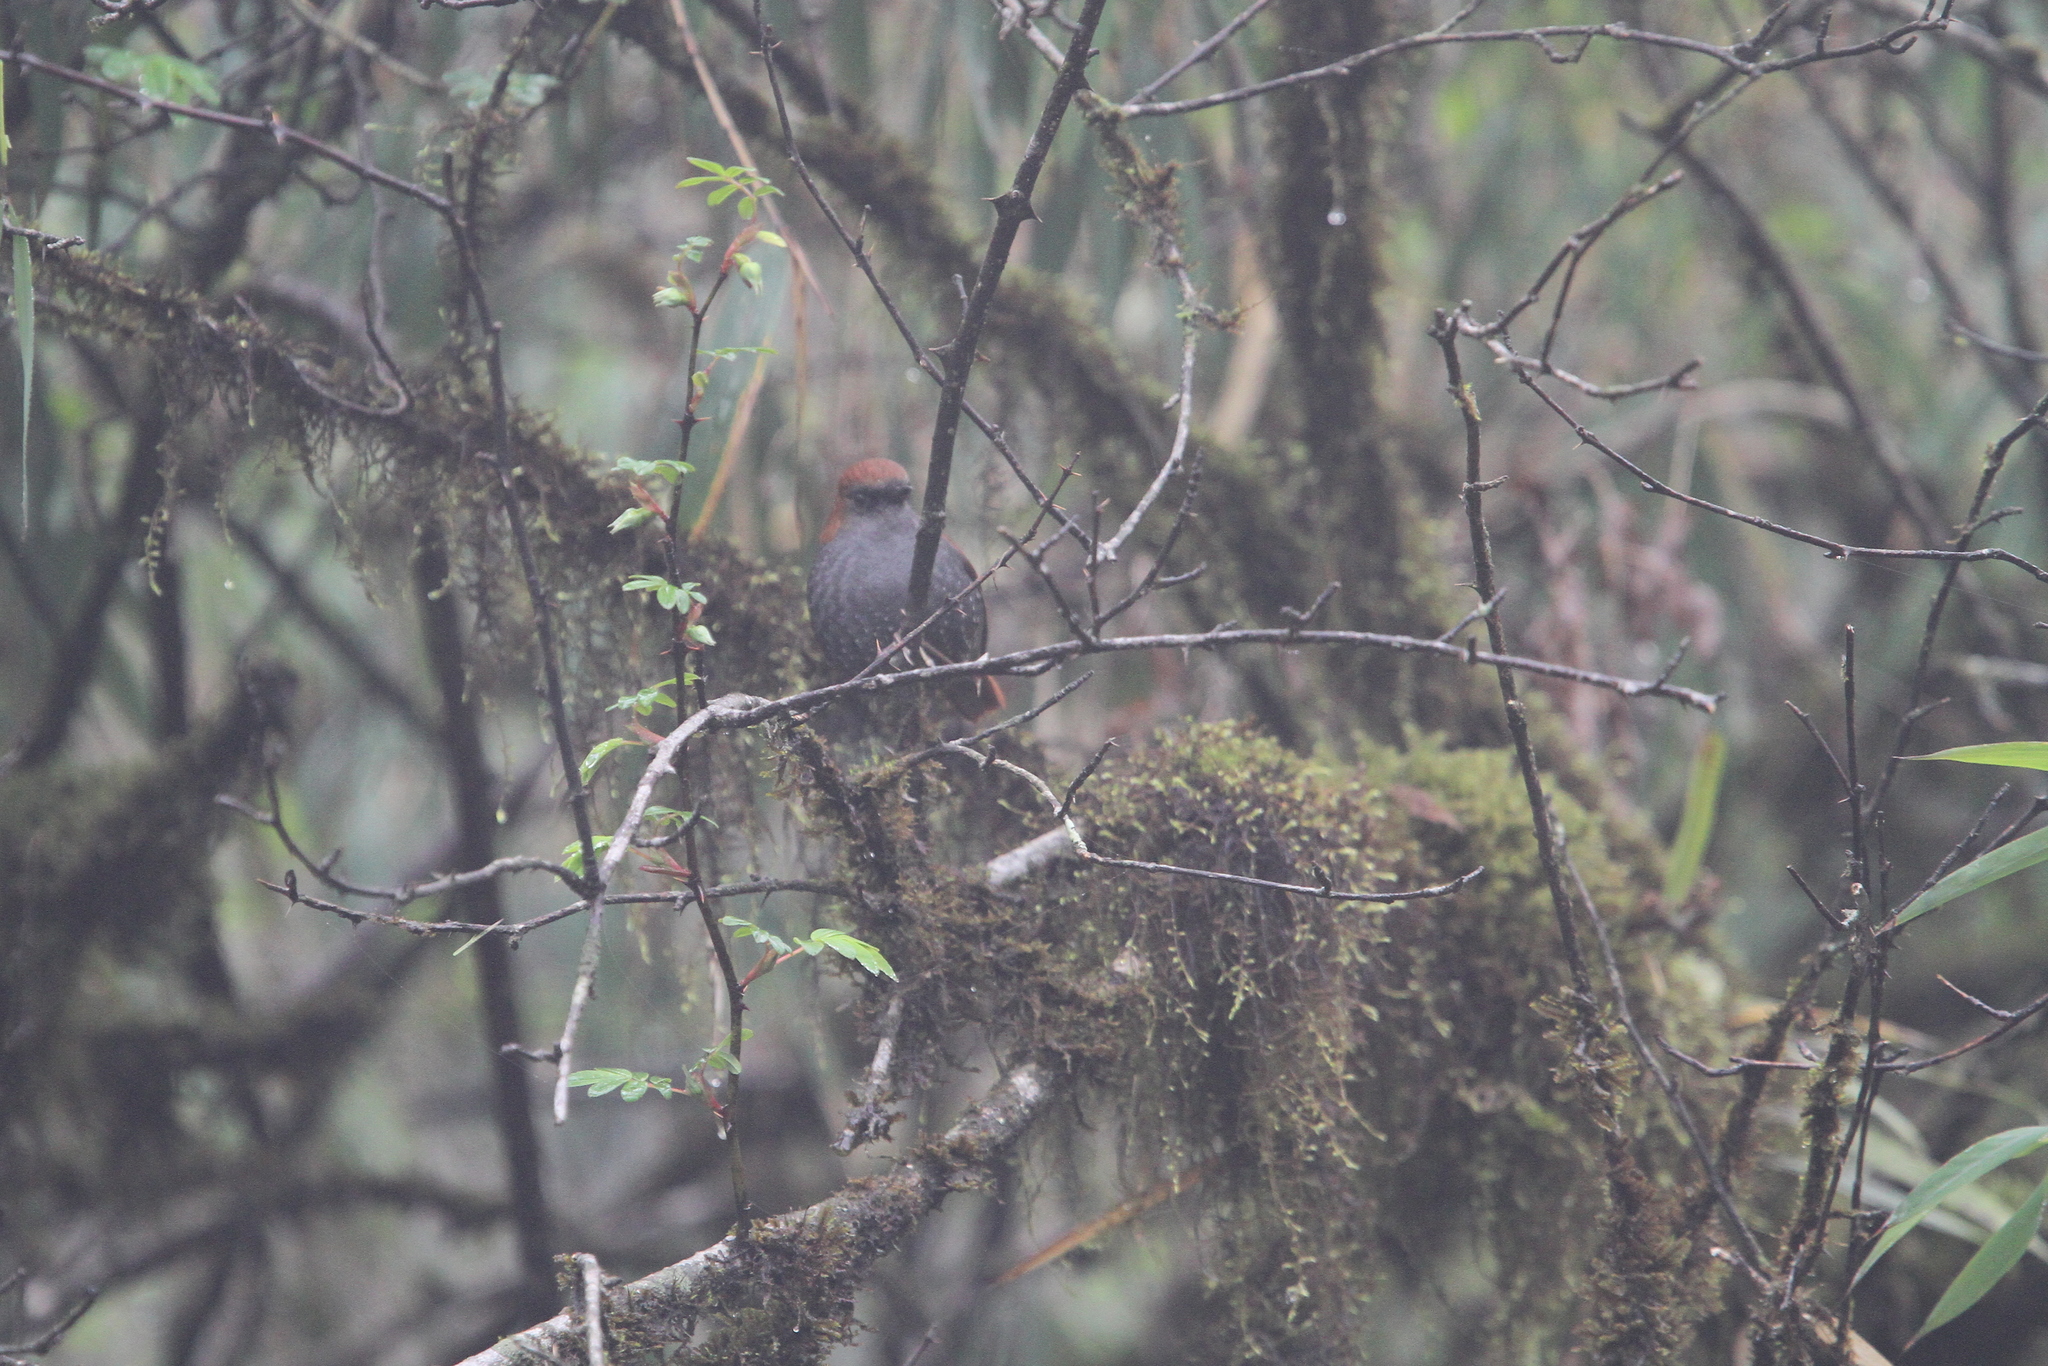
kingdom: Animalia
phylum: Chordata
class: Aves
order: Passeriformes
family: Muscicapidae
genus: Heteroxenicus
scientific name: Heteroxenicus stellatus
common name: Gould's shortwing
